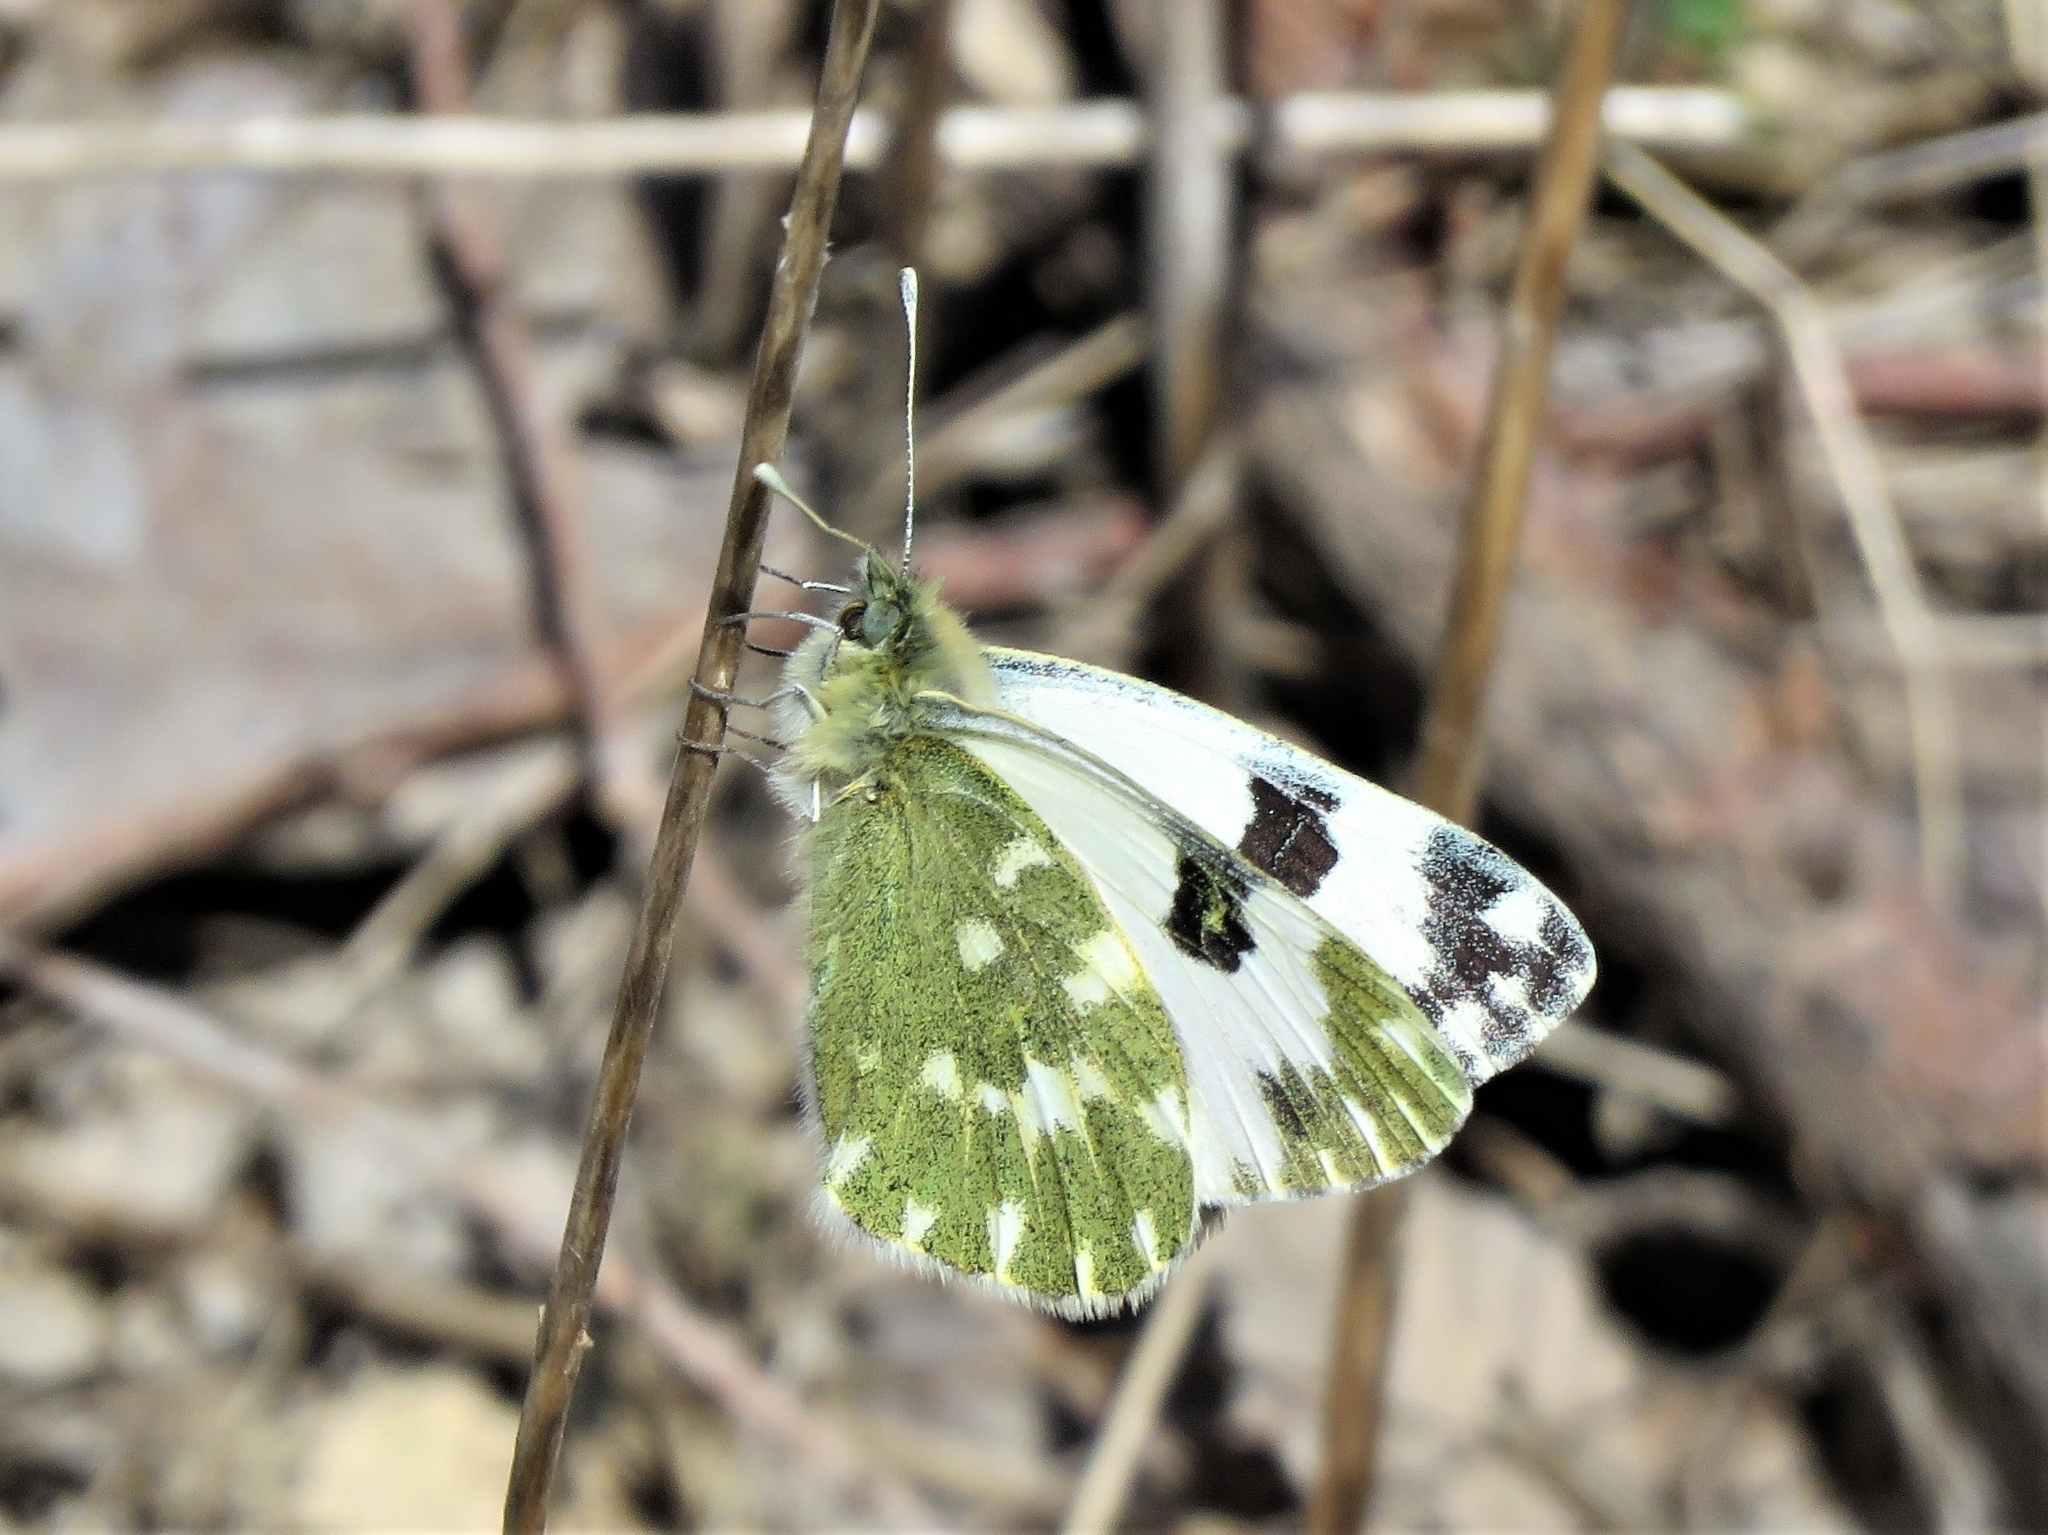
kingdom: Animalia
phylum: Arthropoda
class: Insecta
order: Lepidoptera
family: Pieridae
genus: Pontia
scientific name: Pontia daplidice
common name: Bath white
